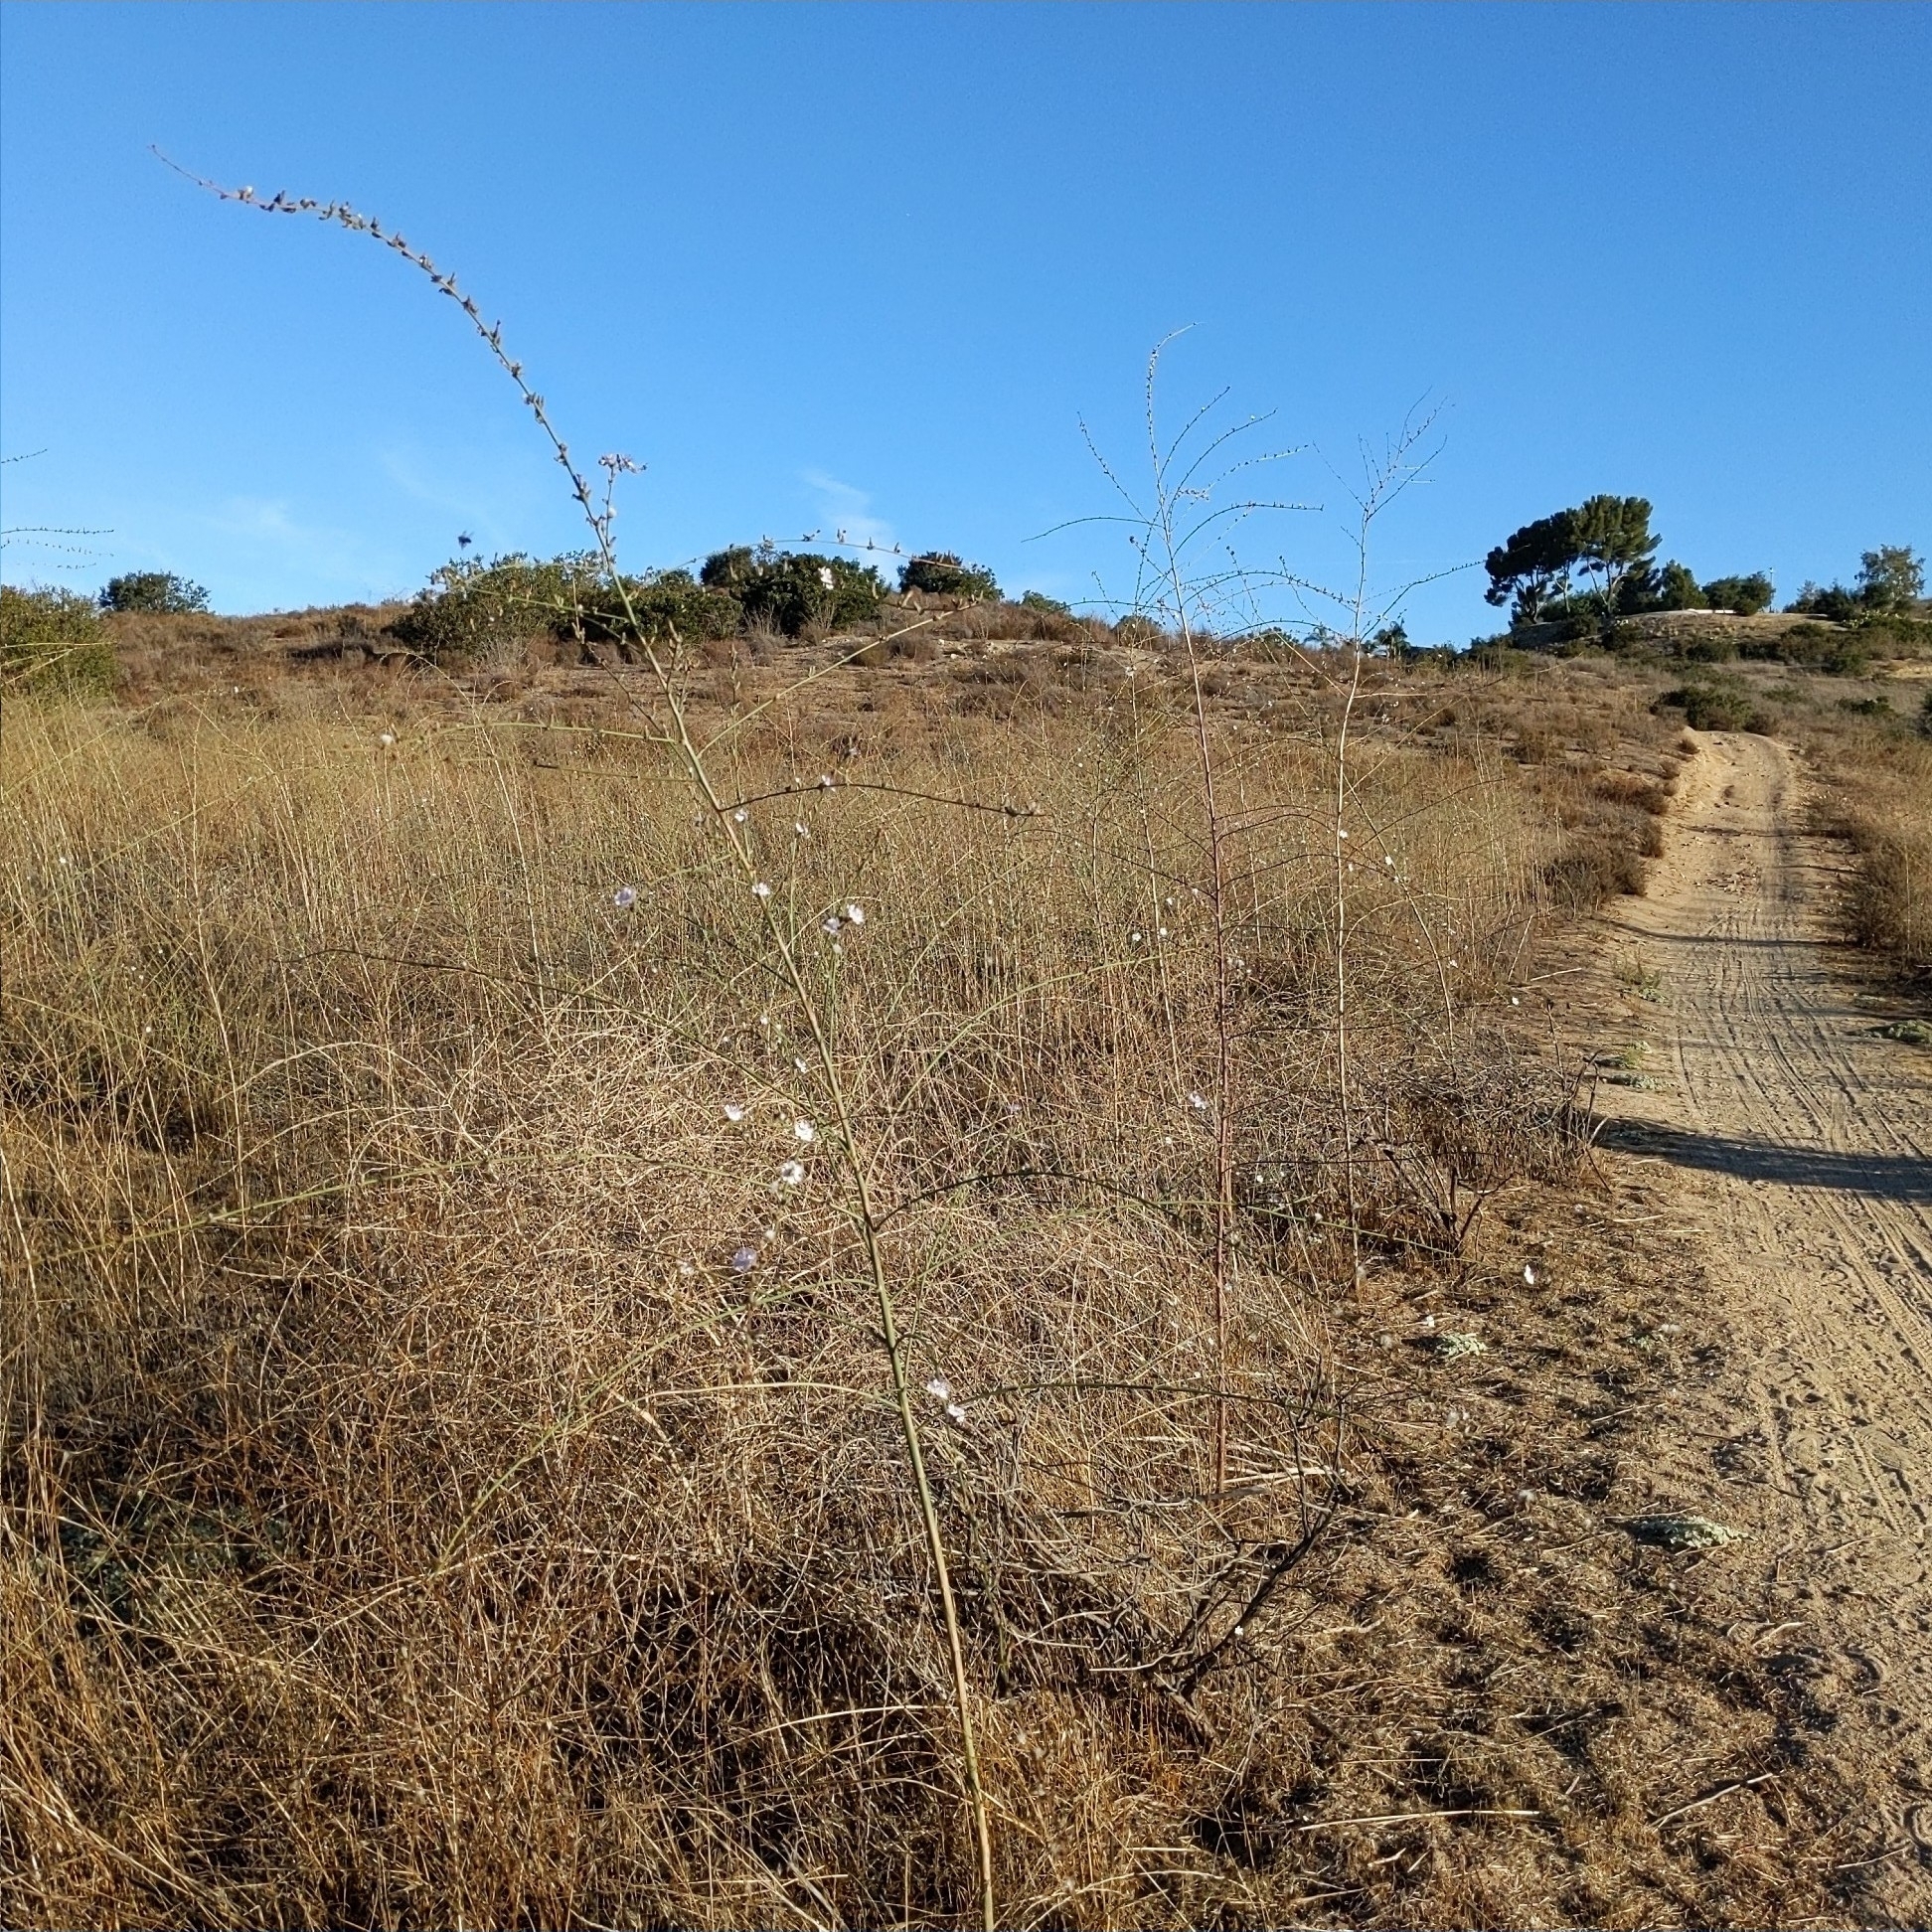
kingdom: Plantae
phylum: Tracheophyta
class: Magnoliopsida
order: Asterales
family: Asteraceae
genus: Stephanomeria
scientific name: Stephanomeria diegensis
